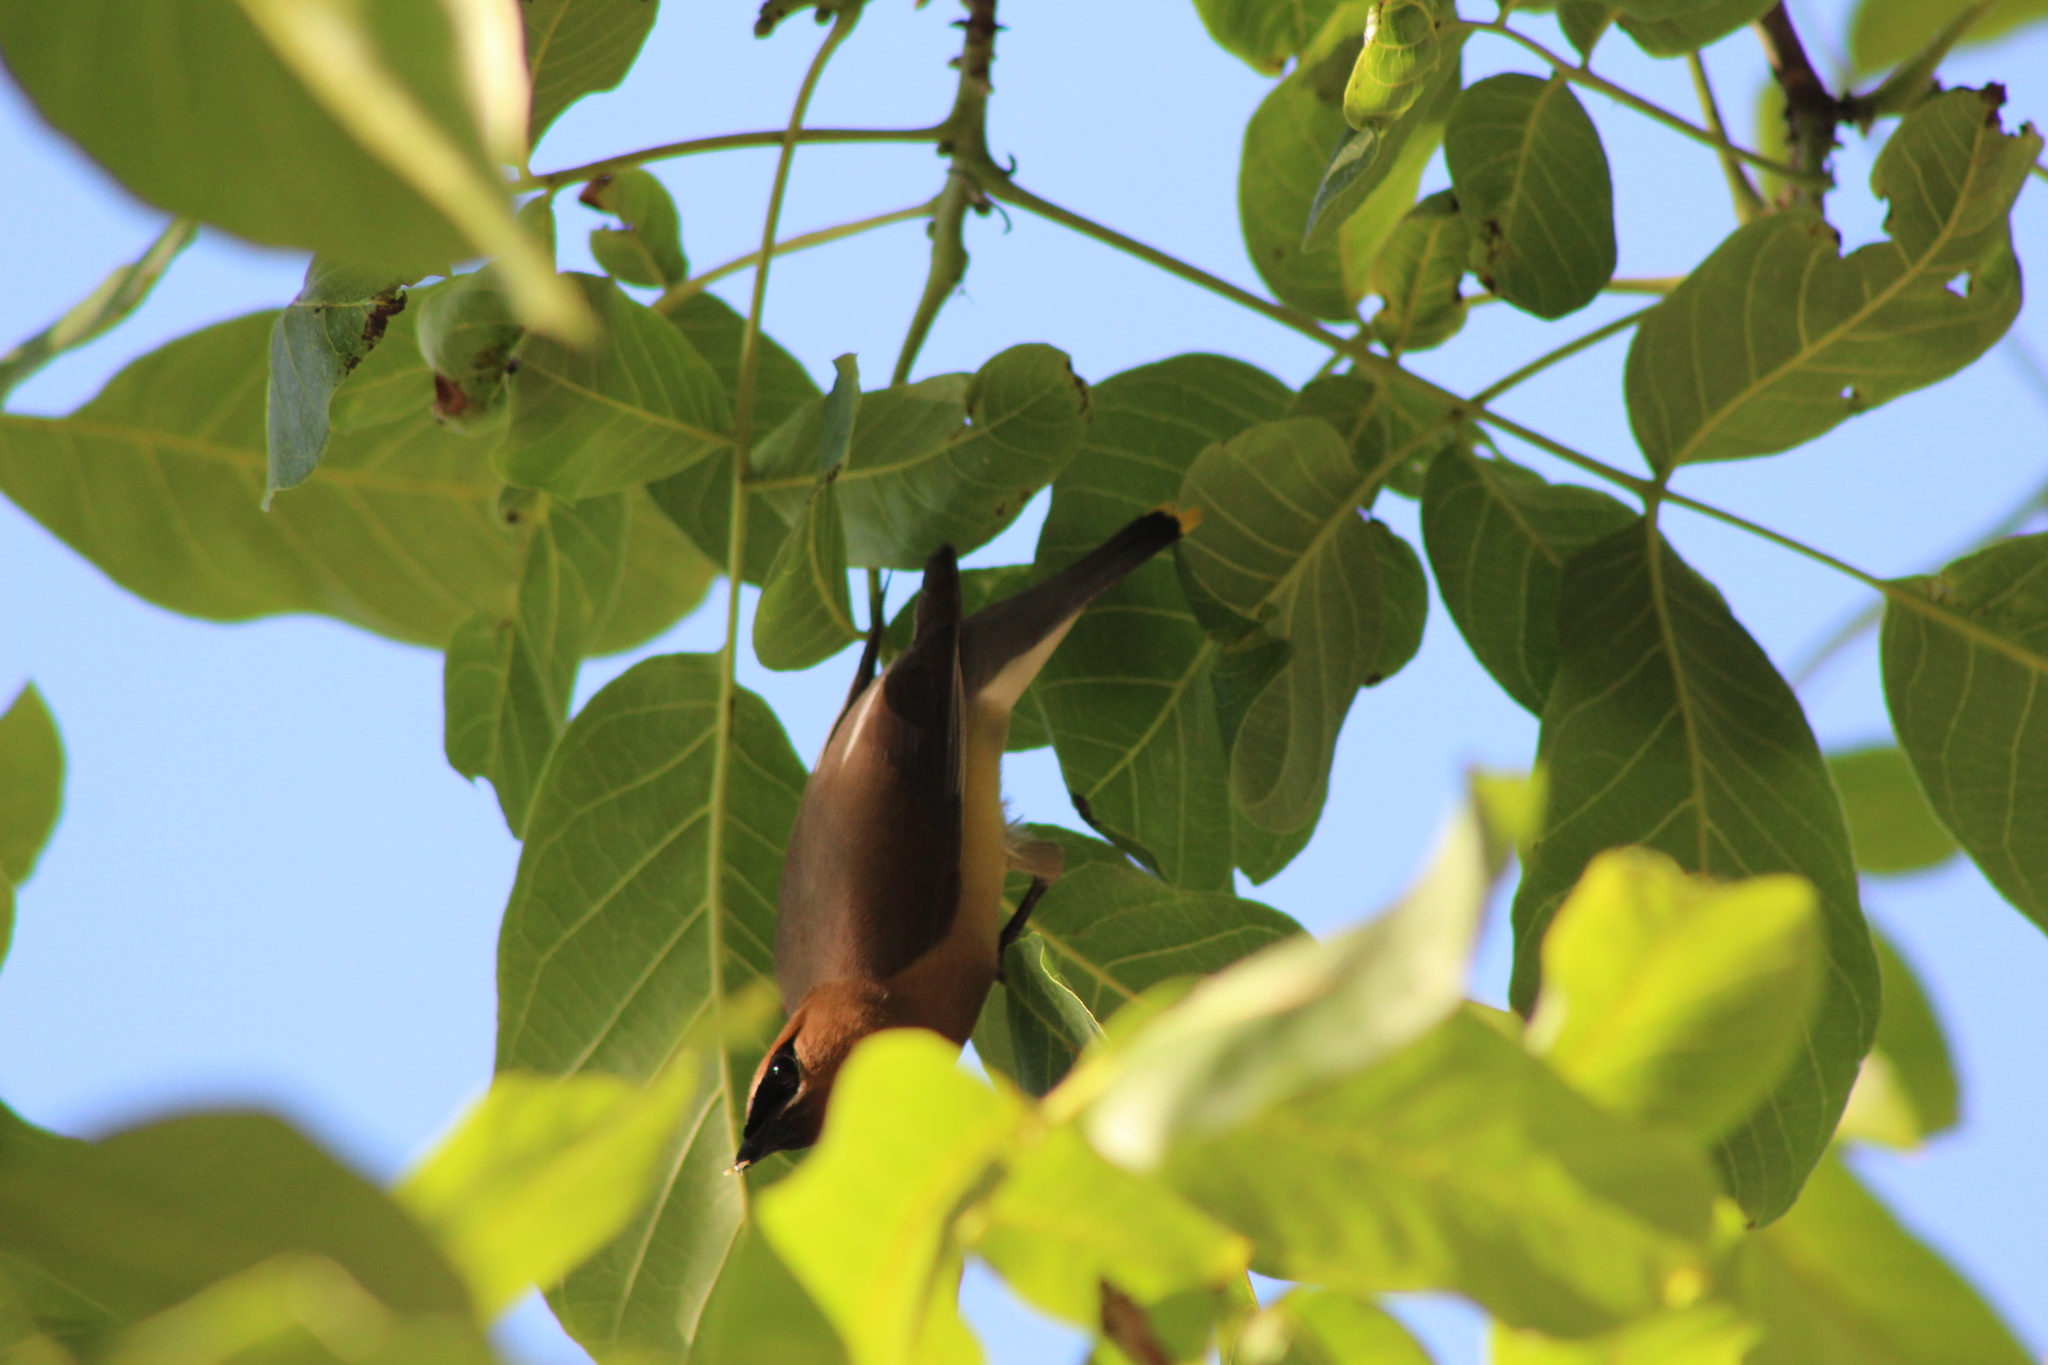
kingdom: Animalia
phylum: Chordata
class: Aves
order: Passeriformes
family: Bombycillidae
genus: Bombycilla
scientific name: Bombycilla cedrorum
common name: Cedar waxwing
